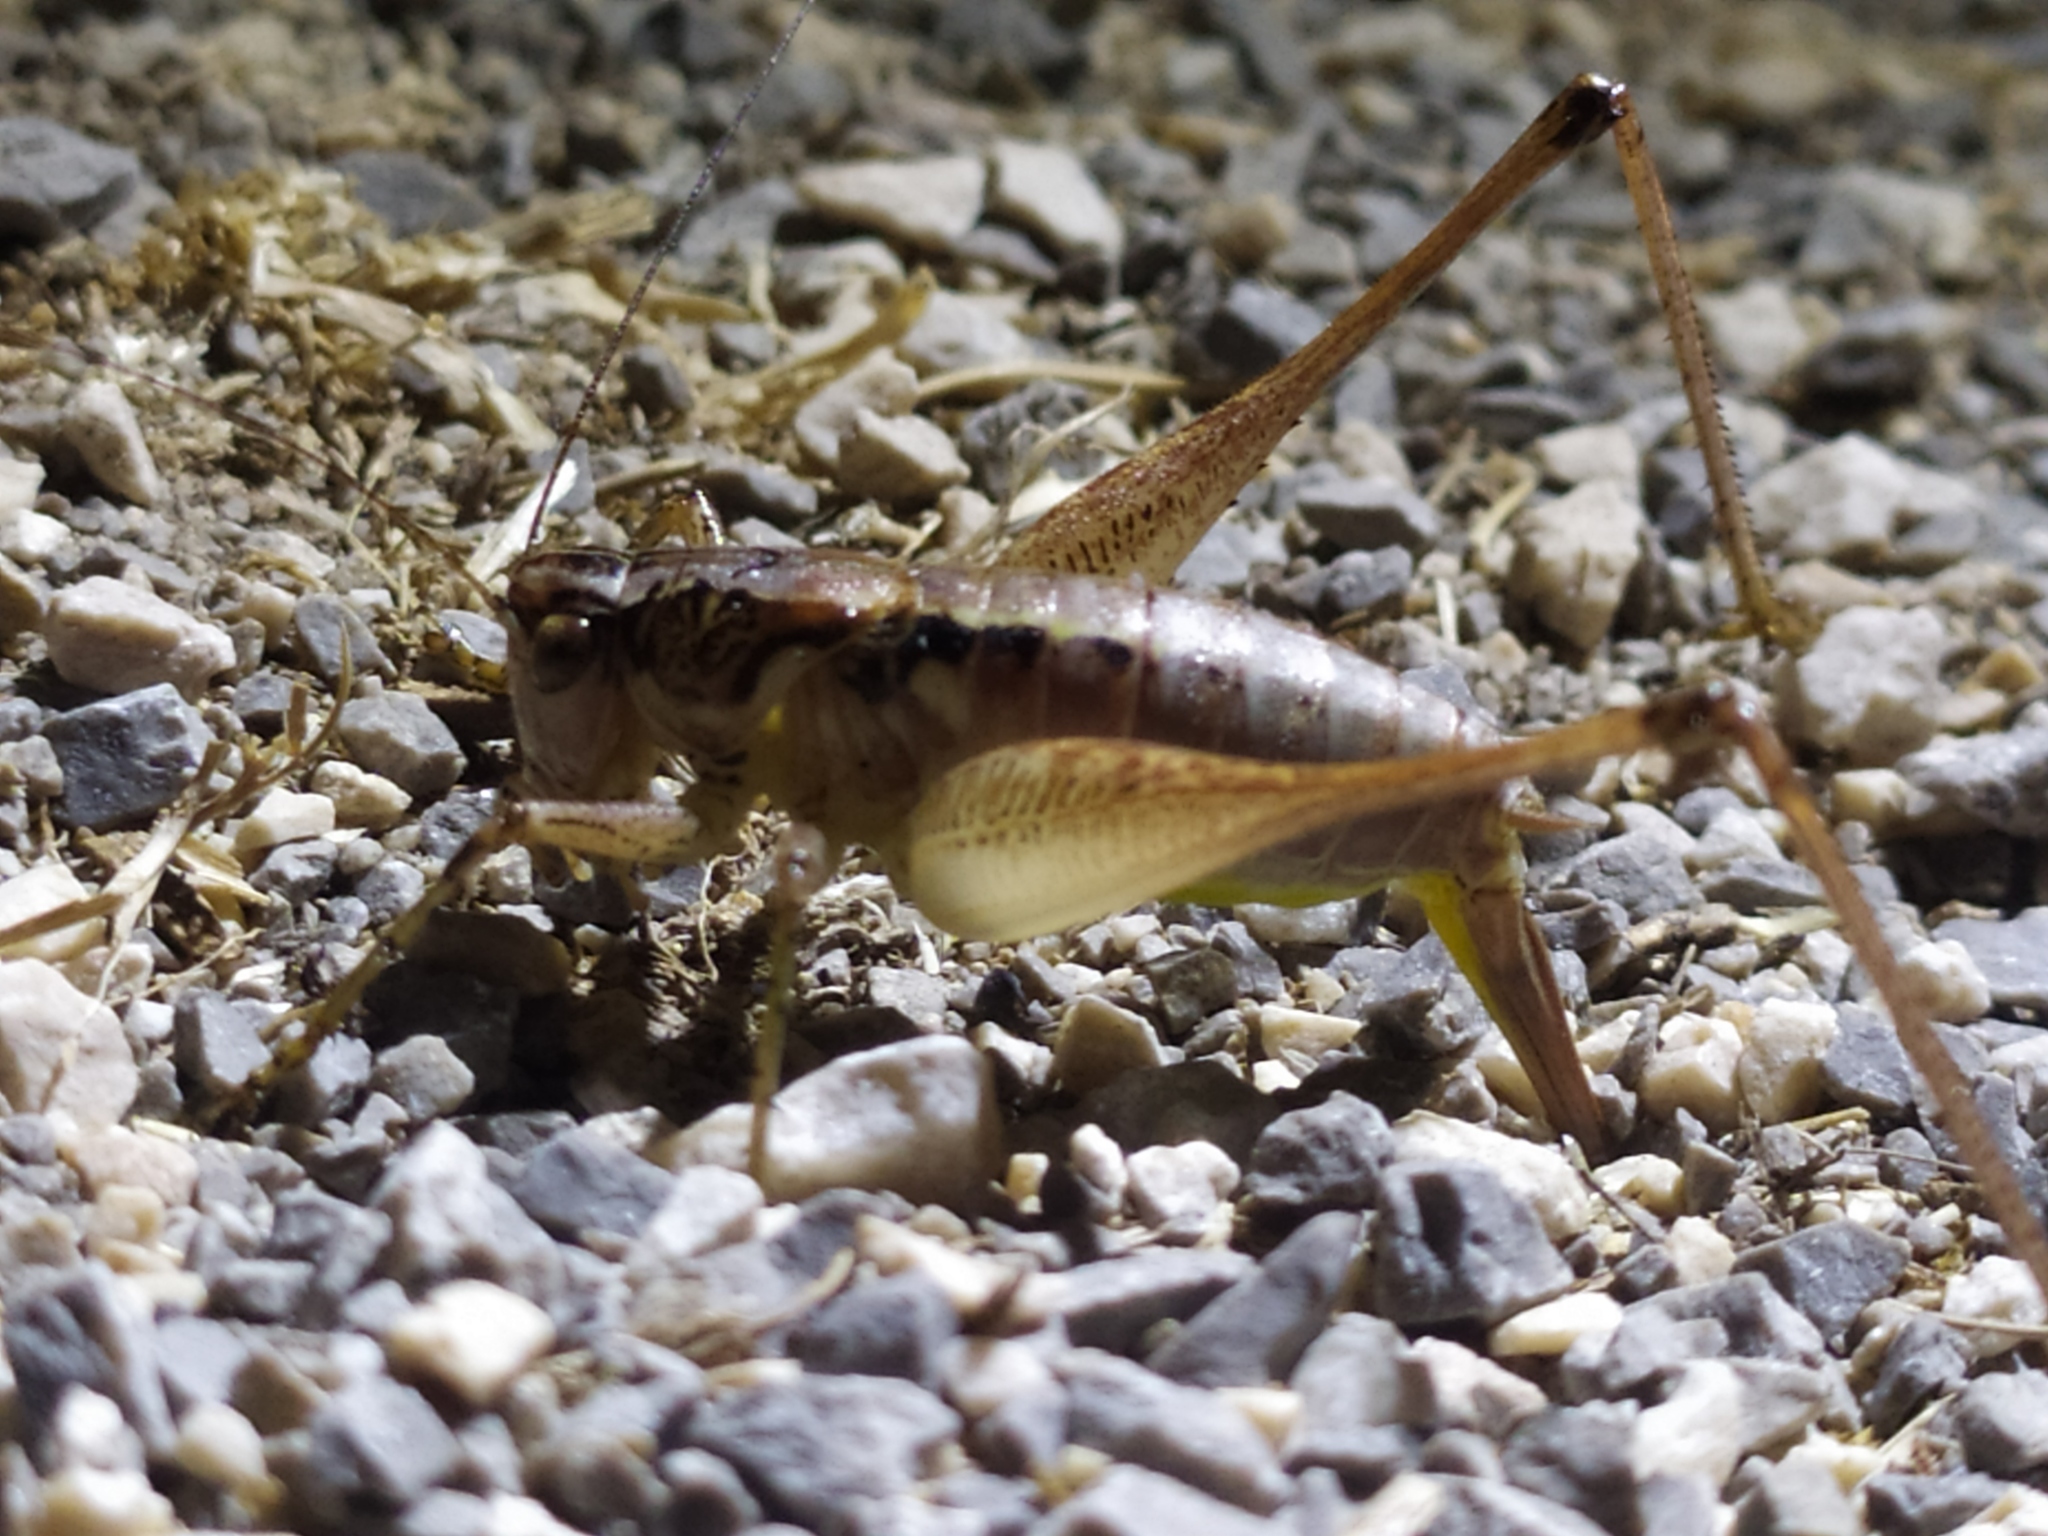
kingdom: Animalia
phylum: Arthropoda
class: Insecta
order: Orthoptera
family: Tettigoniidae
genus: Pachytrachis
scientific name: Pachytrachis striolatus
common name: Striated bush-cricket
